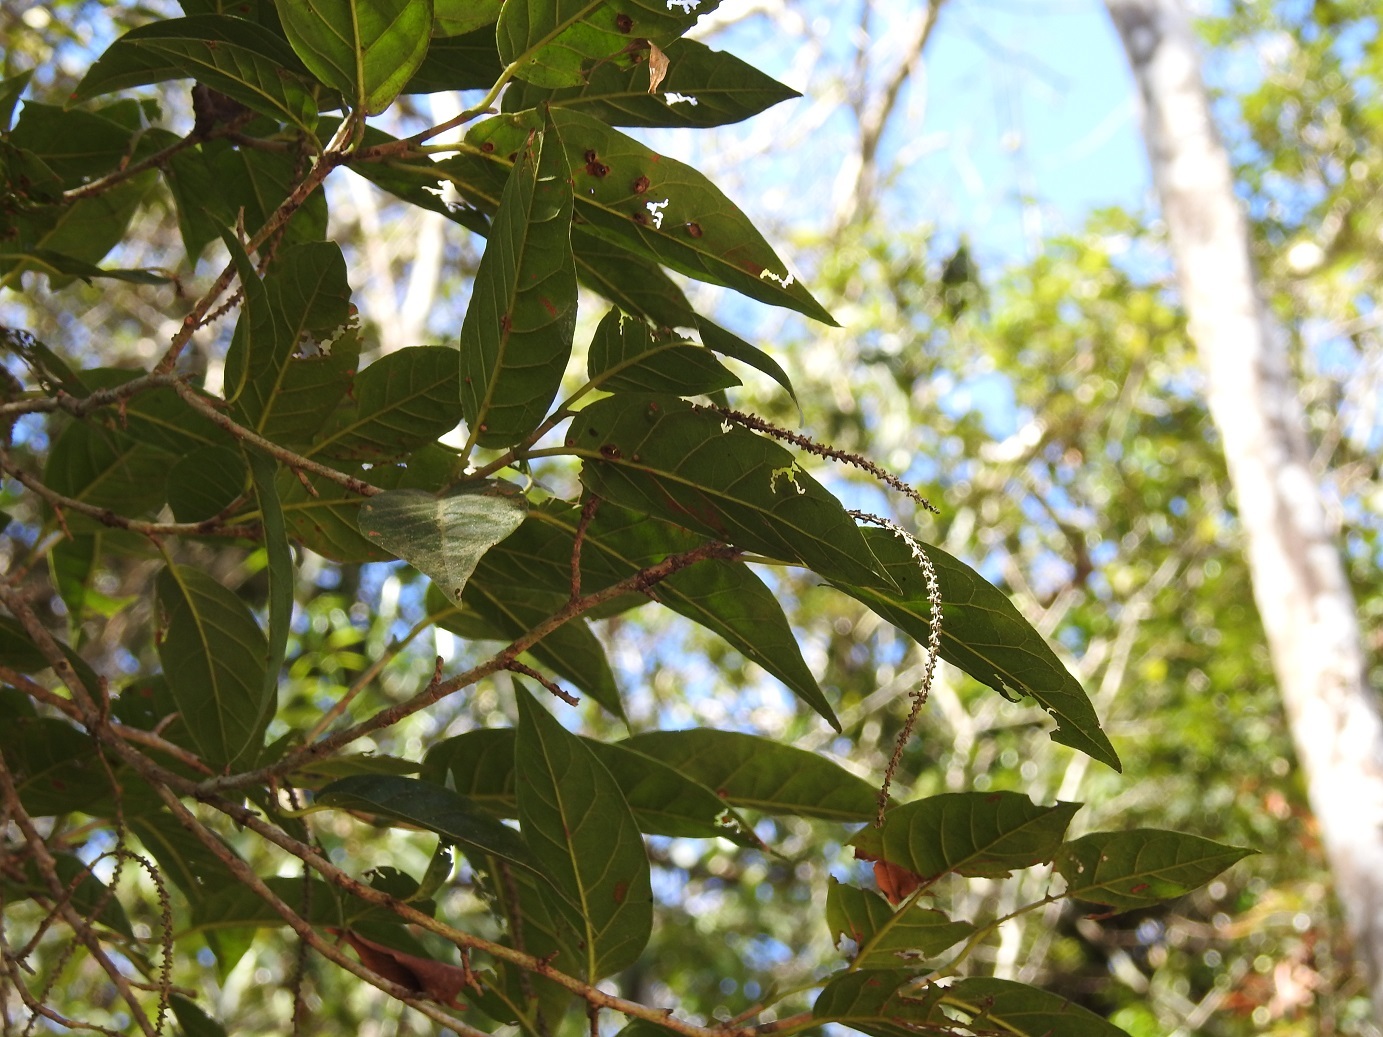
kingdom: Plantae
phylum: Tracheophyta
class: Magnoliopsida
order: Caryophyllales
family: Polygonaceae
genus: Coccoloba
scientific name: Coccoloba floresii
